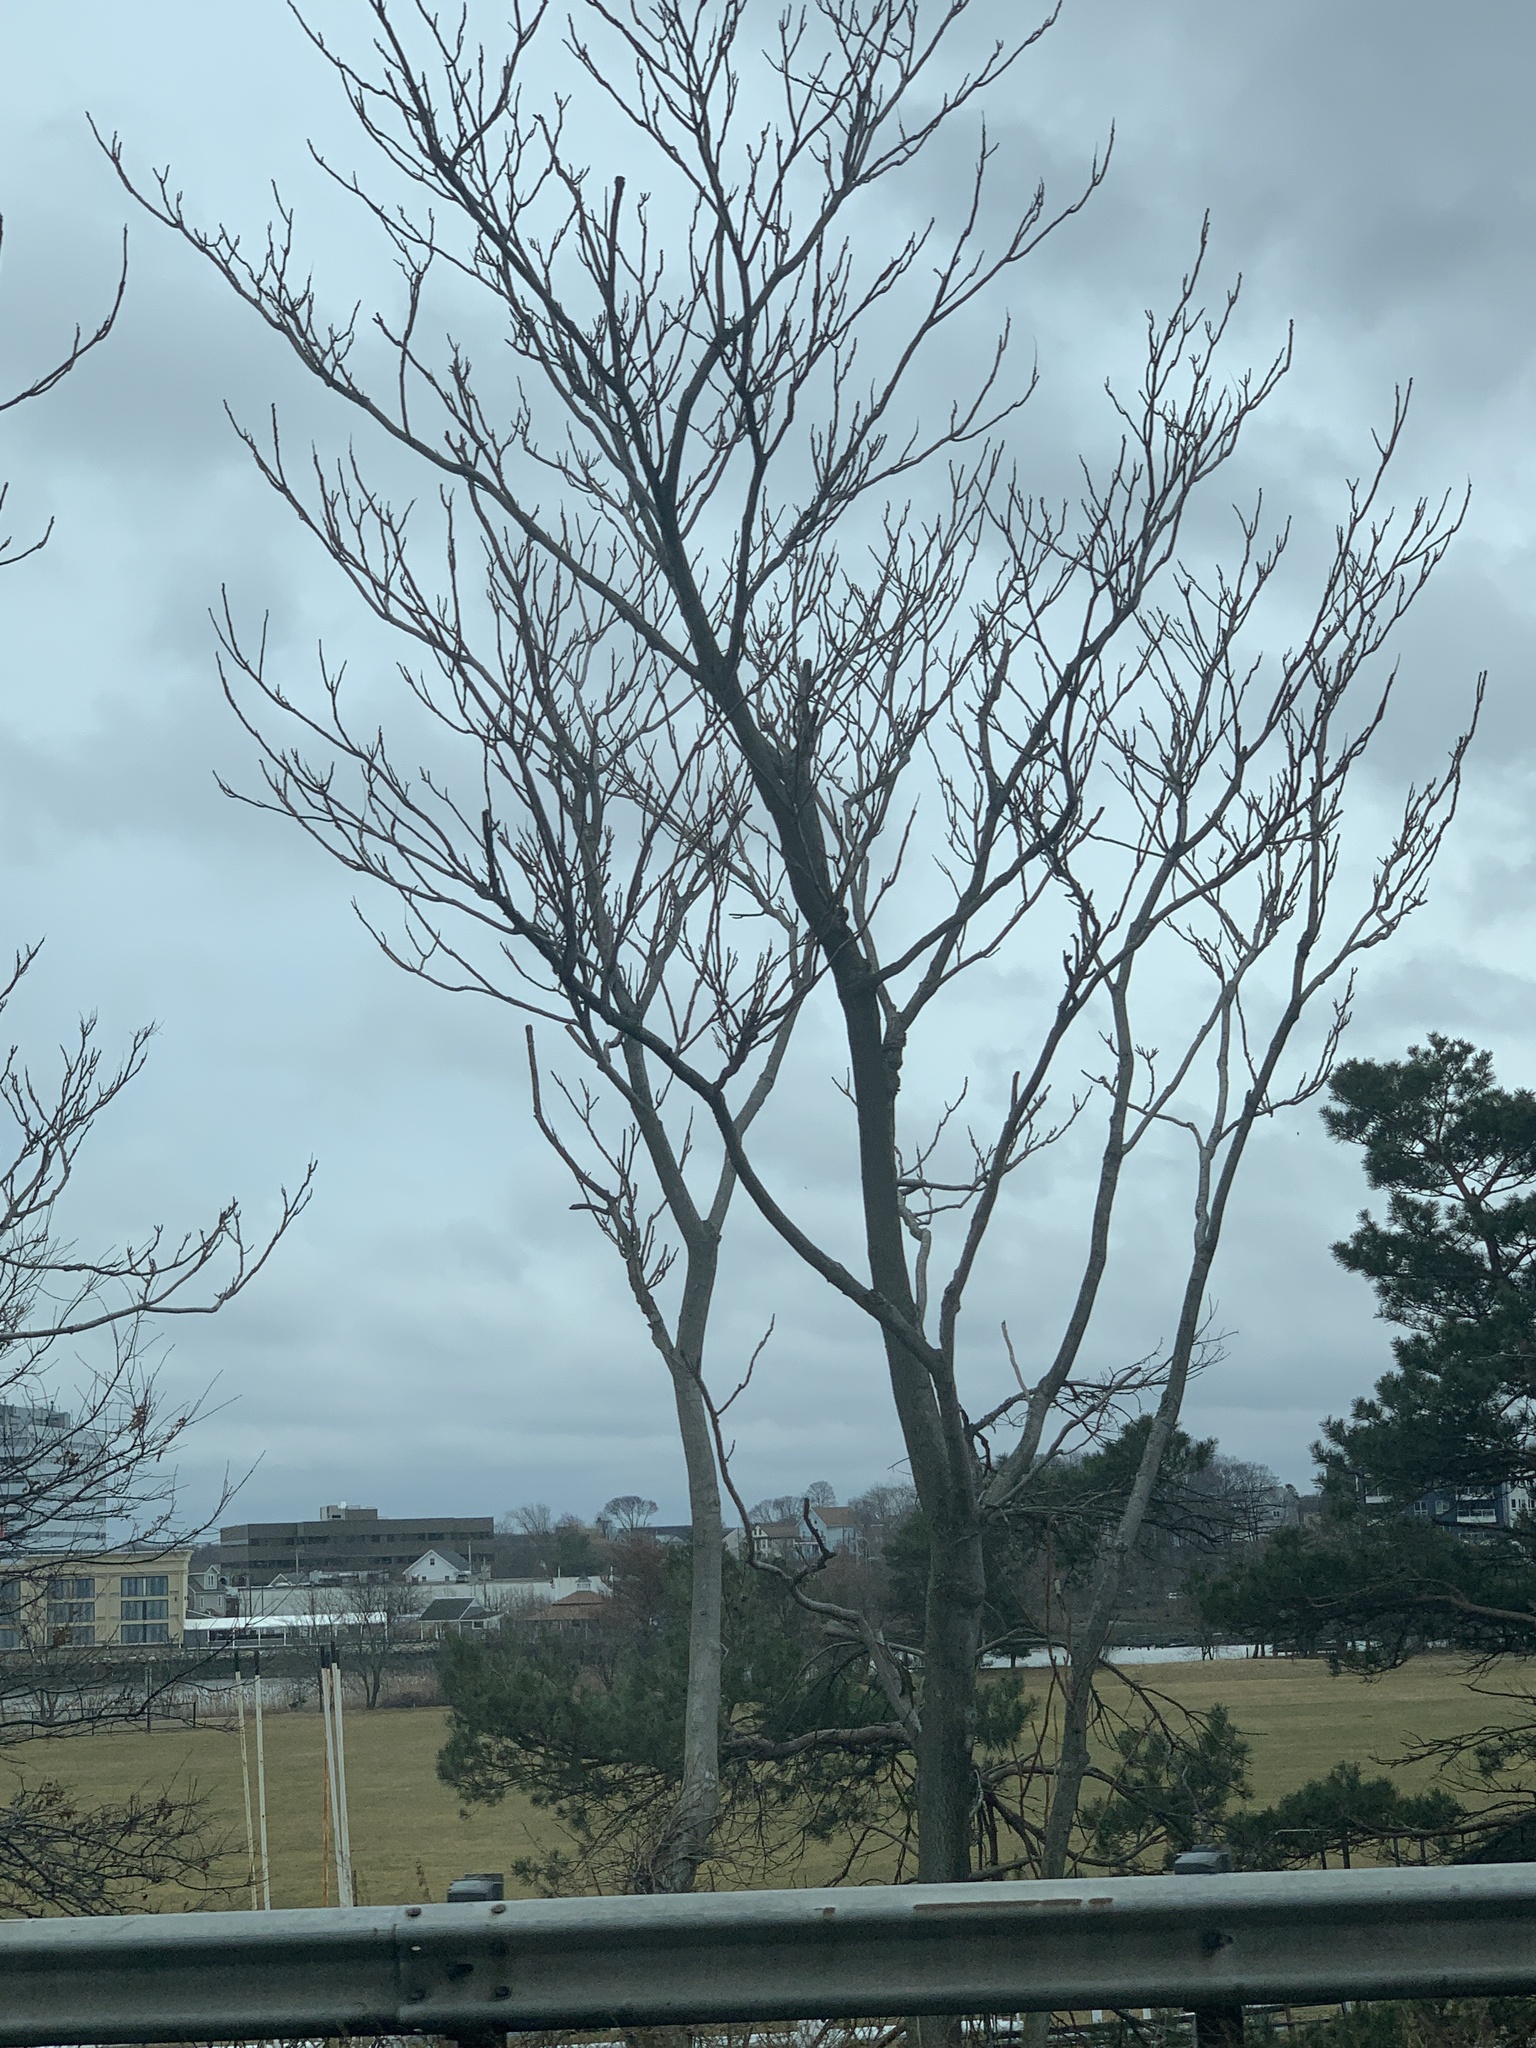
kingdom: Plantae
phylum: Tracheophyta
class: Magnoliopsida
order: Sapindales
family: Simaroubaceae
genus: Ailanthus
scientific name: Ailanthus altissima
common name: Tree-of-heaven
